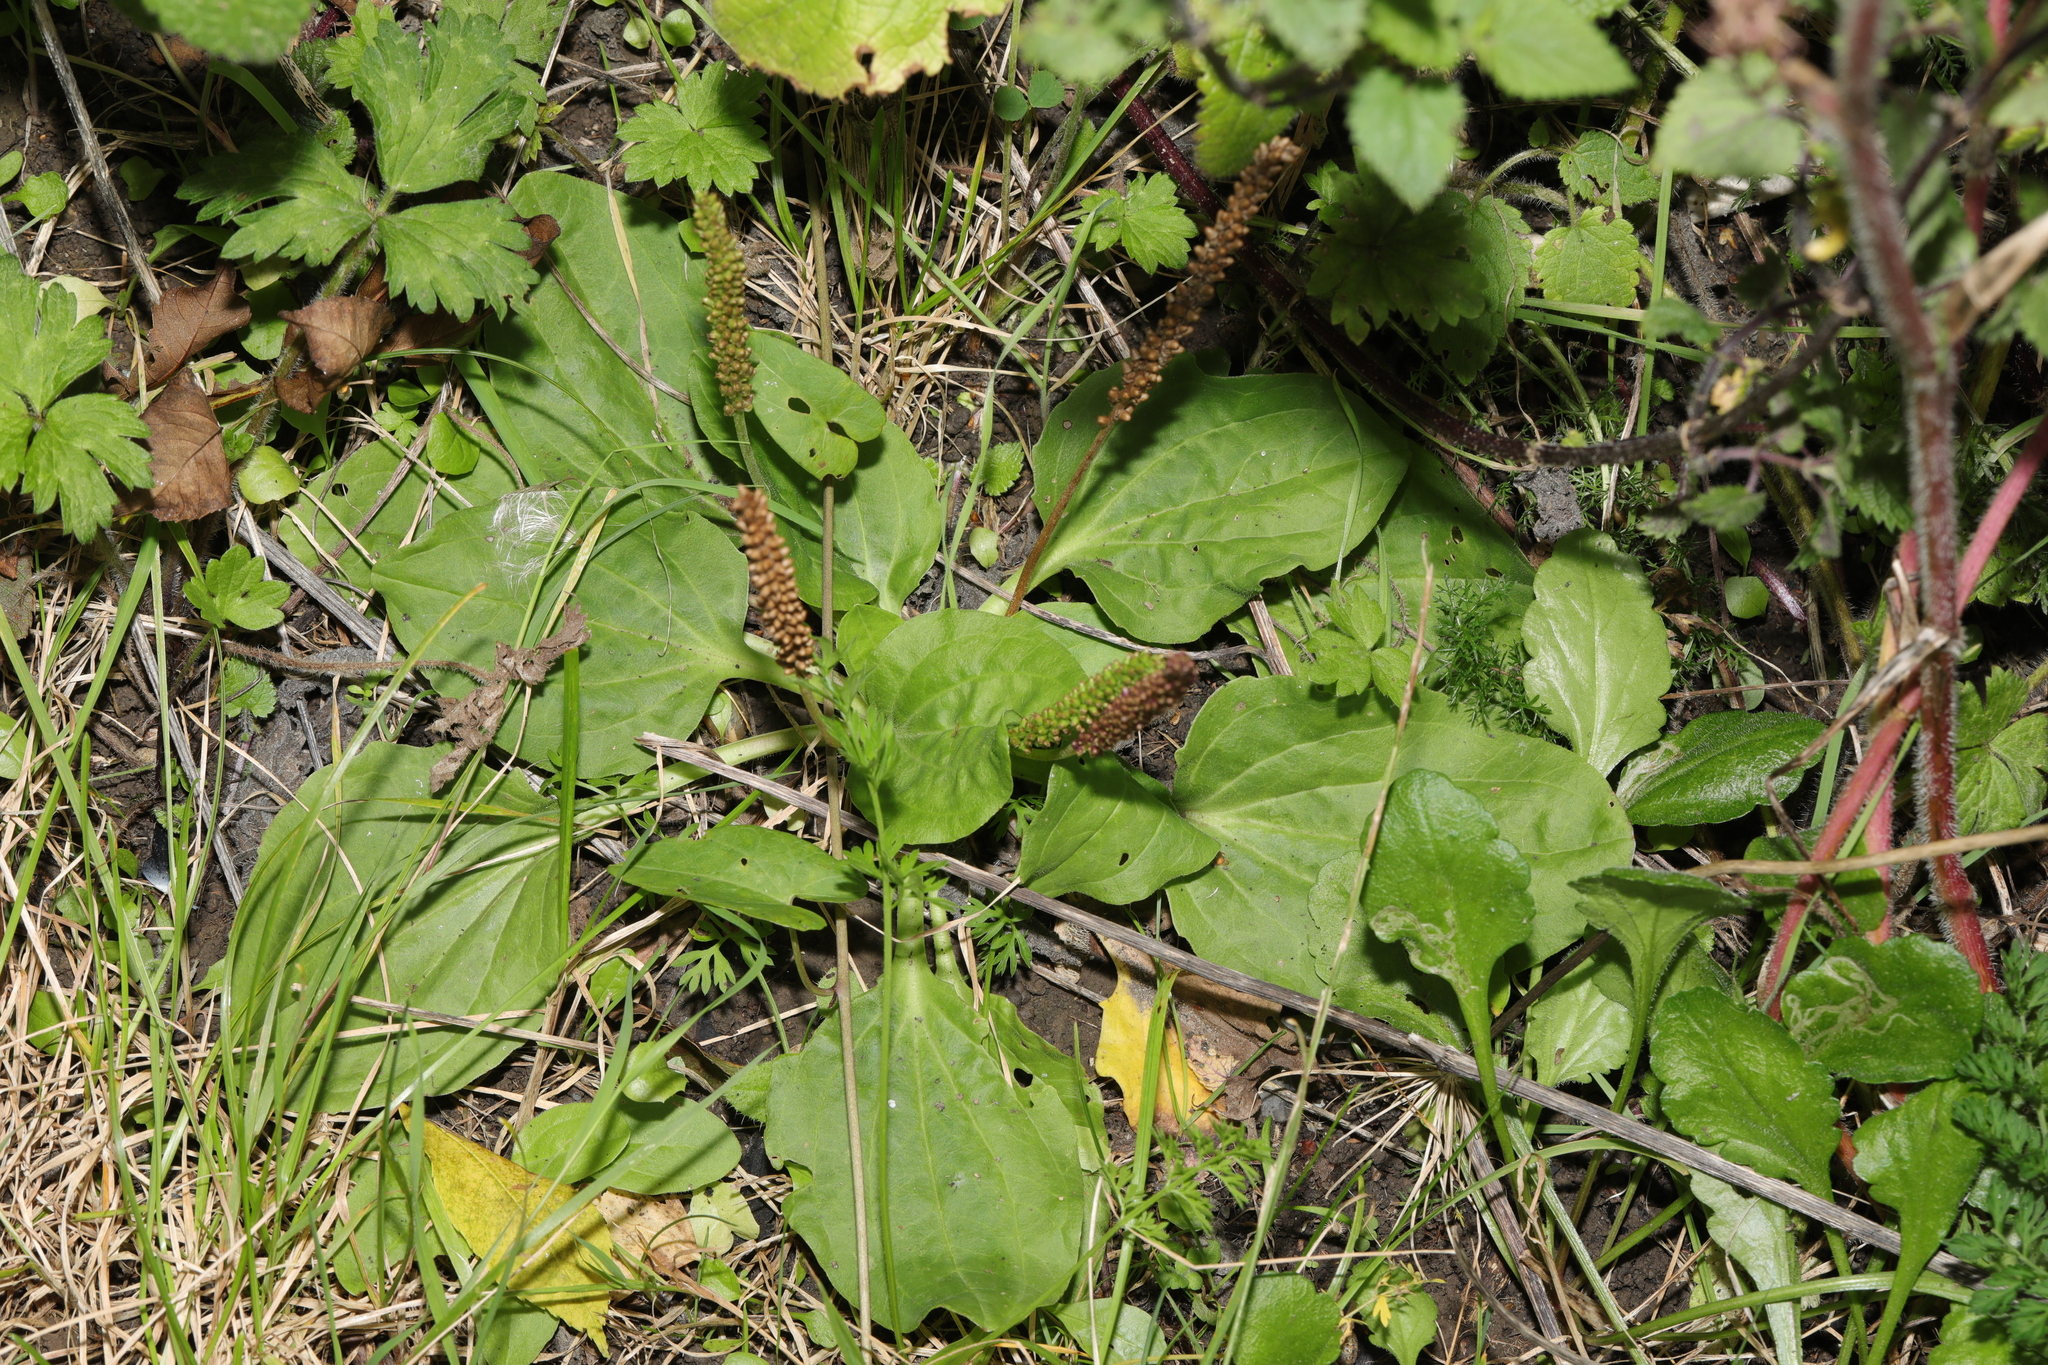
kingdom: Plantae
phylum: Tracheophyta
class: Magnoliopsida
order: Lamiales
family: Plantaginaceae
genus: Plantago
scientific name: Plantago major
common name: Common plantain
